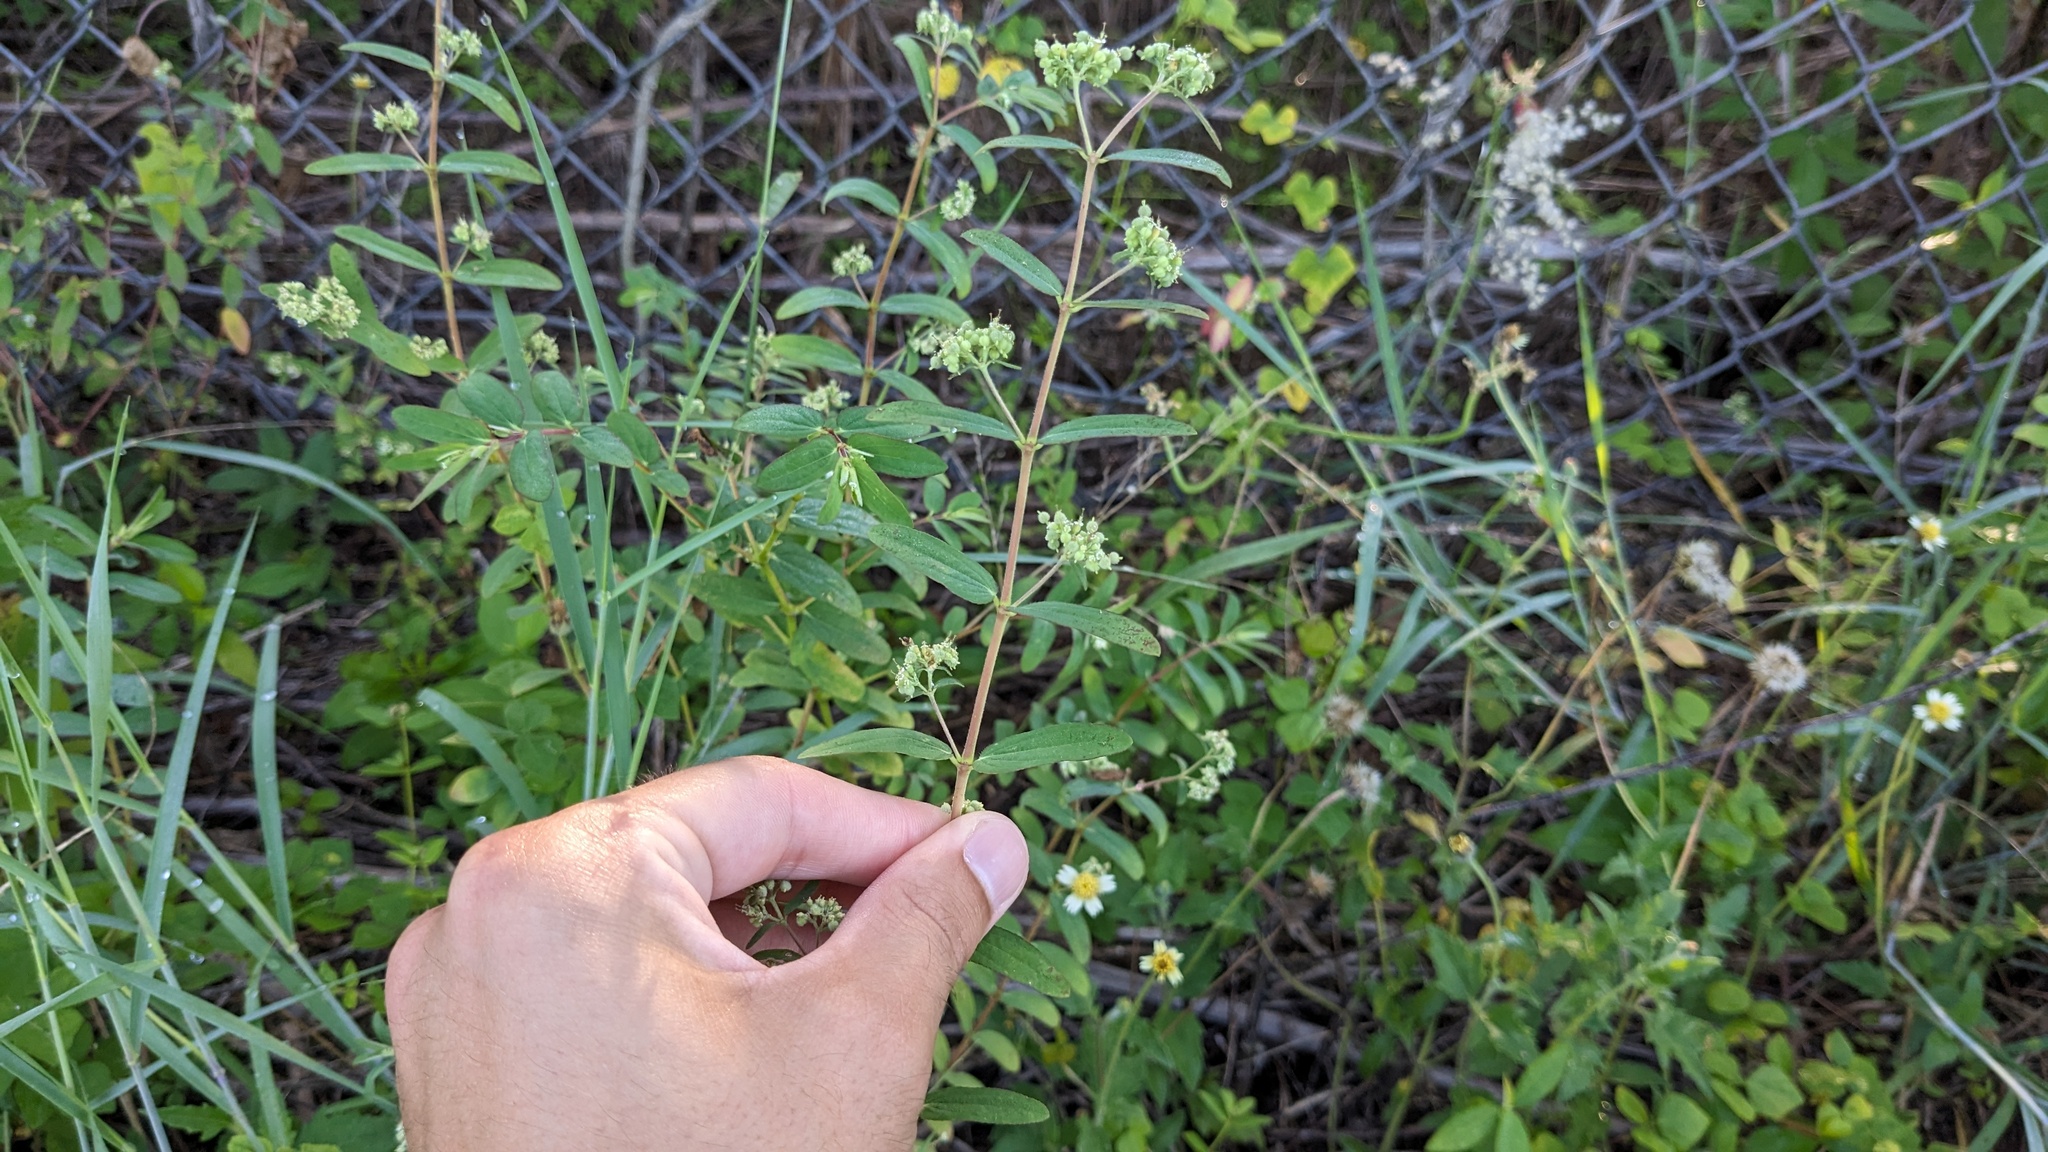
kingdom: Plantae
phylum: Tracheophyta
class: Magnoliopsida
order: Malpighiales
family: Euphorbiaceae
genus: Euphorbia
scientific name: Euphorbia lasiocarpa
